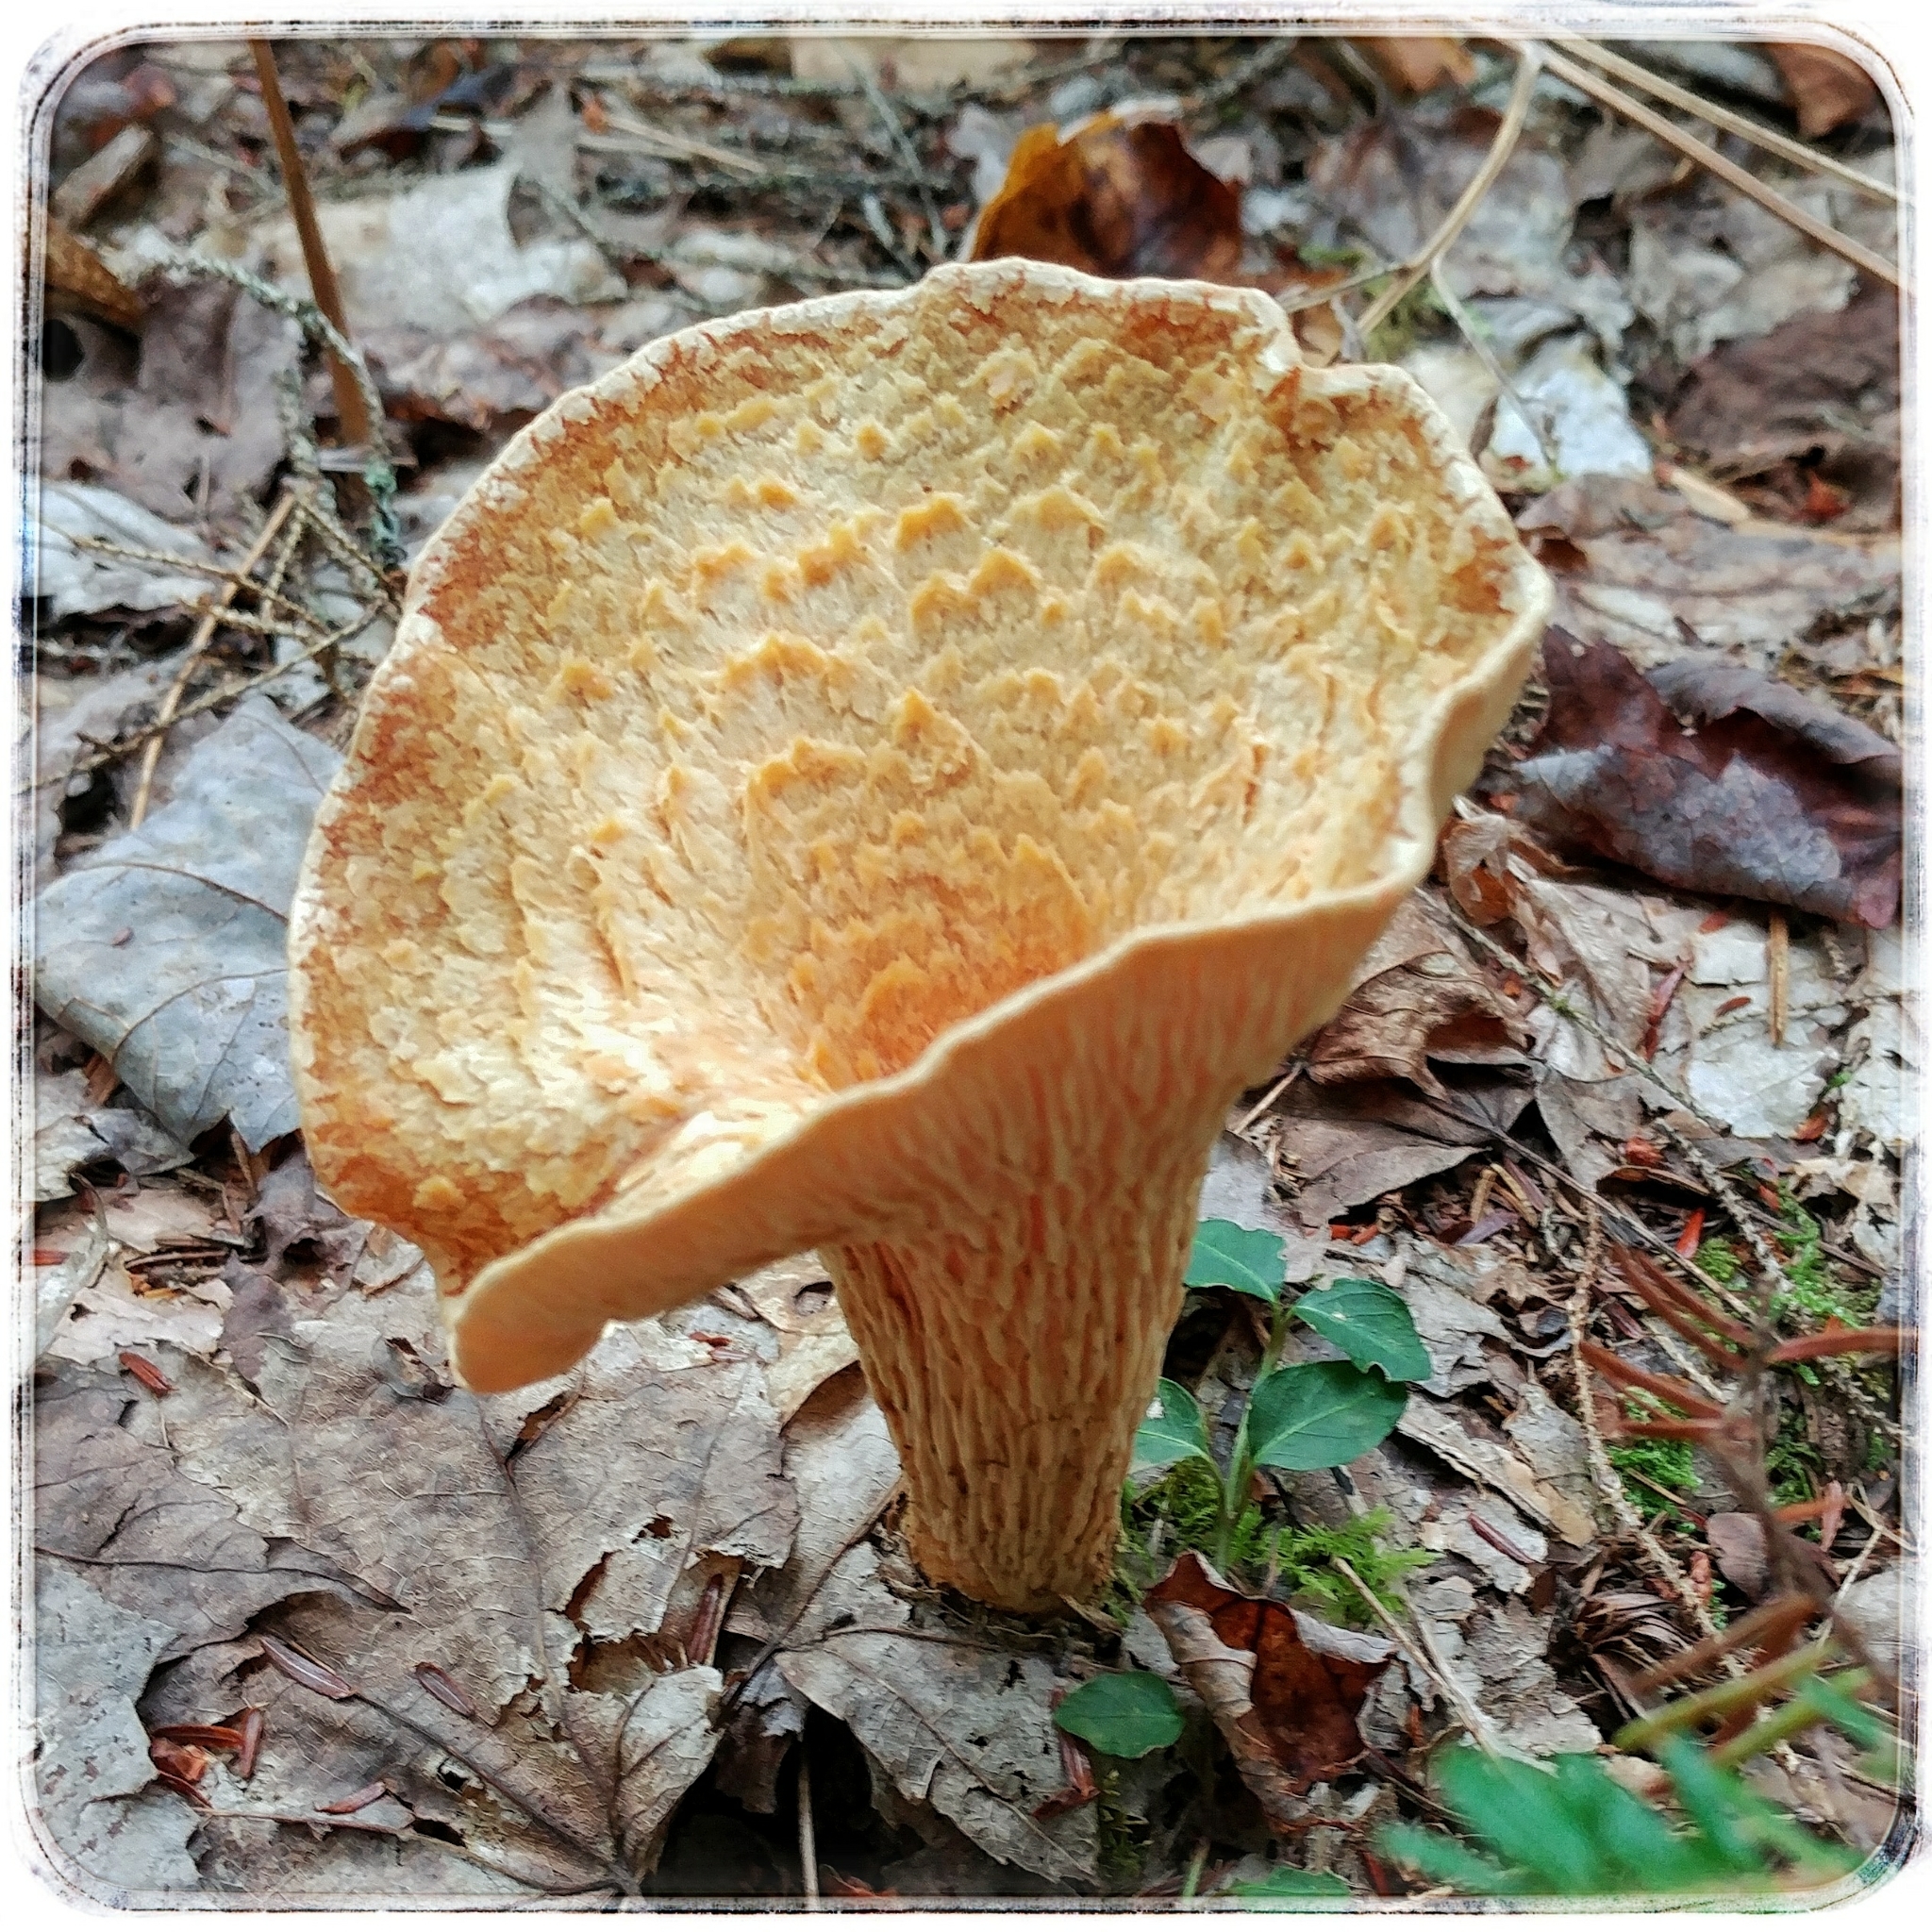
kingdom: Fungi
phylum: Basidiomycota
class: Agaricomycetes
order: Gomphales
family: Gomphaceae
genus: Turbinellus
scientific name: Turbinellus floccosus
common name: Scaly chanterelle
